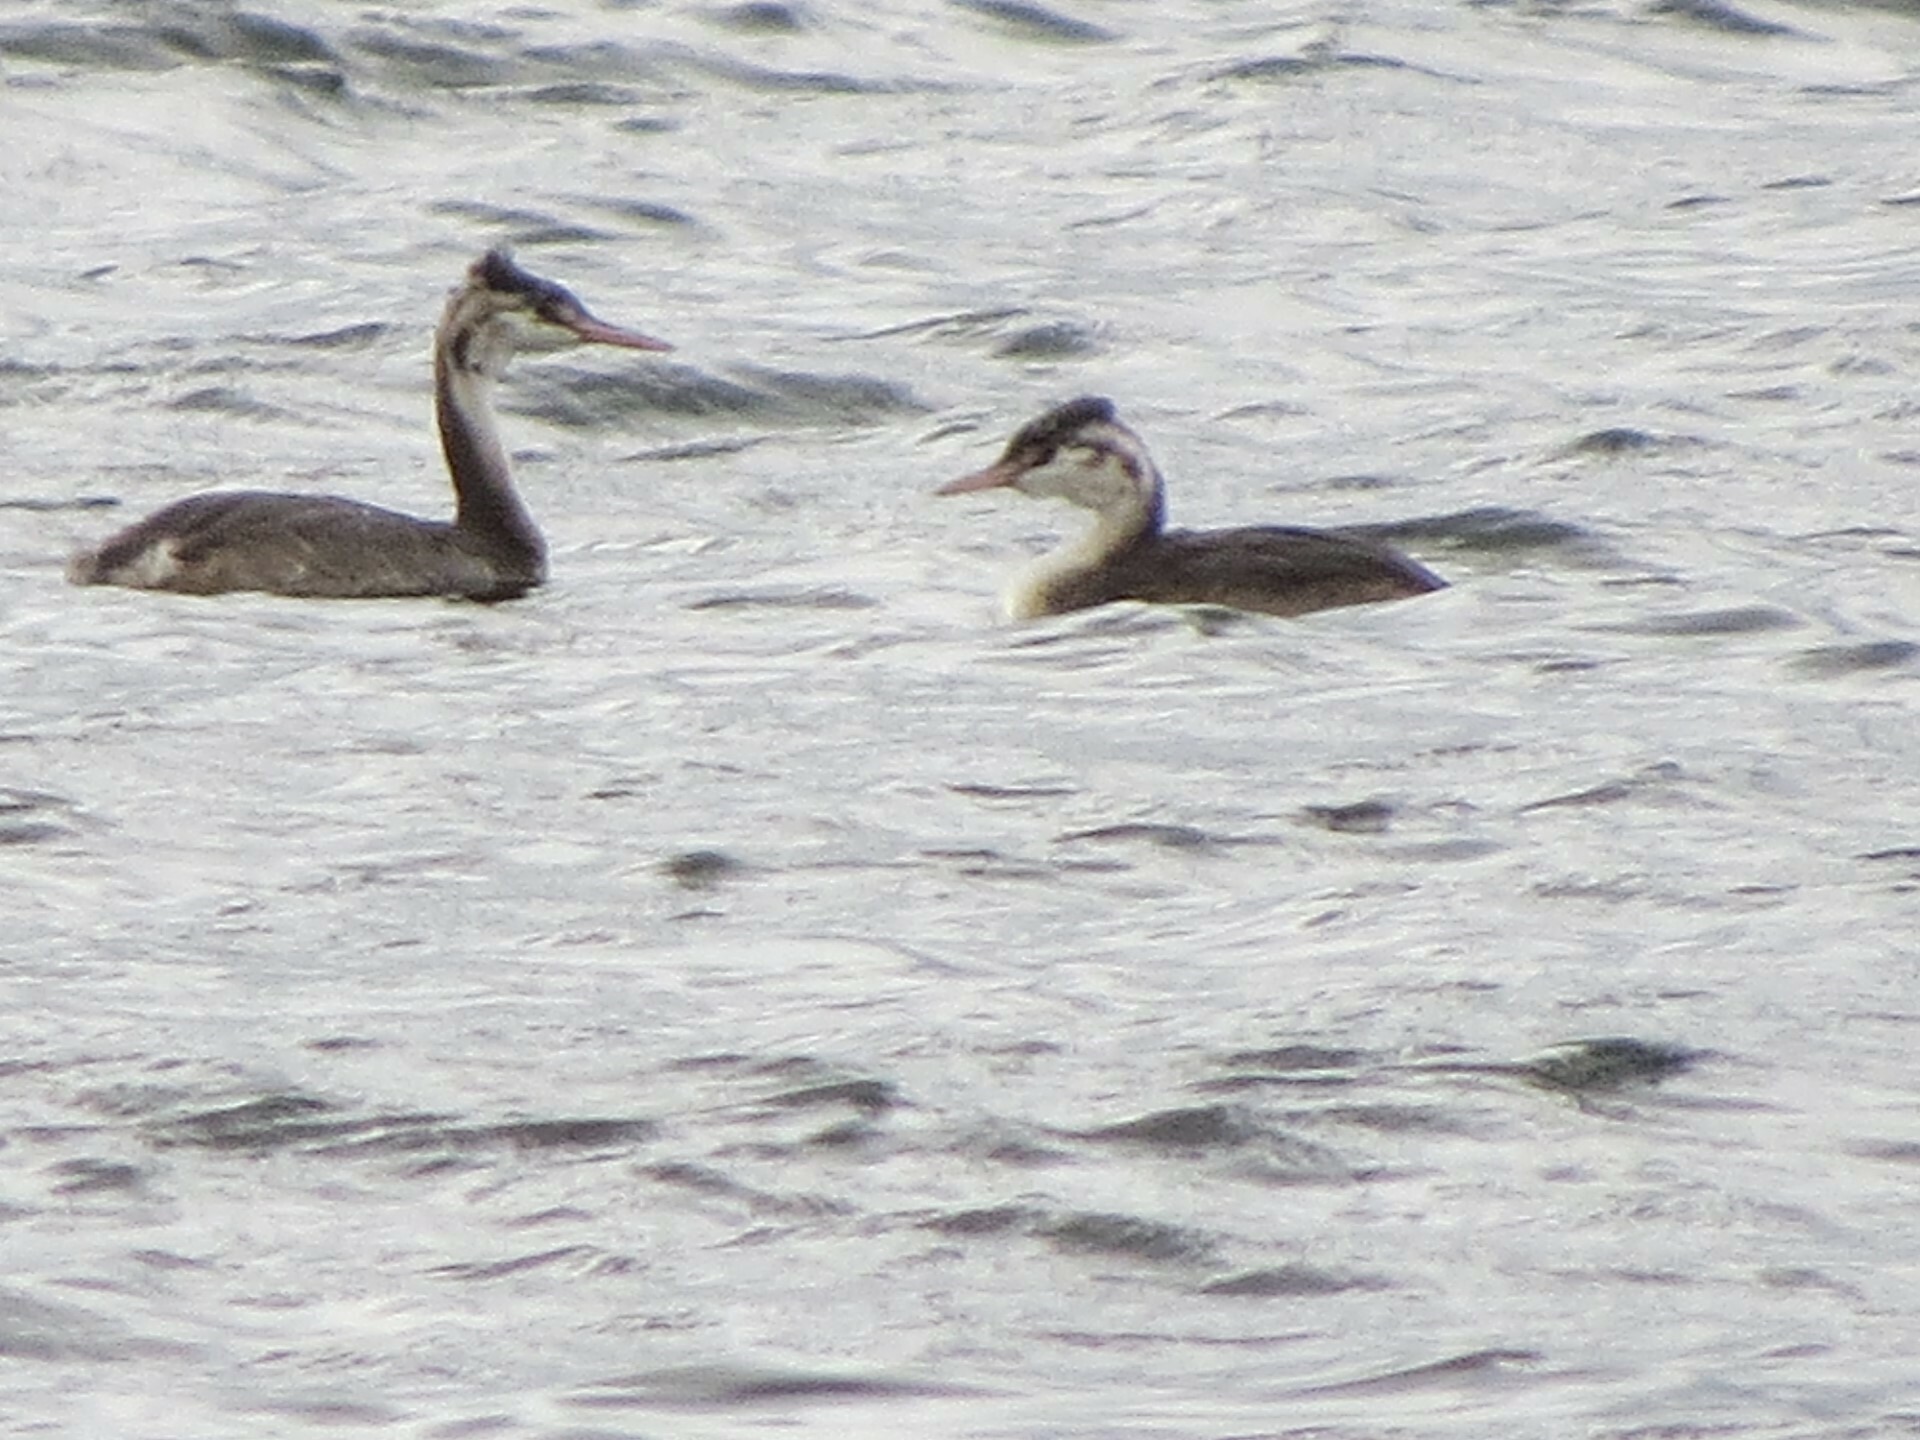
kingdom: Animalia
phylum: Chordata
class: Aves
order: Podicipediformes
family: Podicipedidae
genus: Podiceps
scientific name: Podiceps cristatus
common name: Great crested grebe
